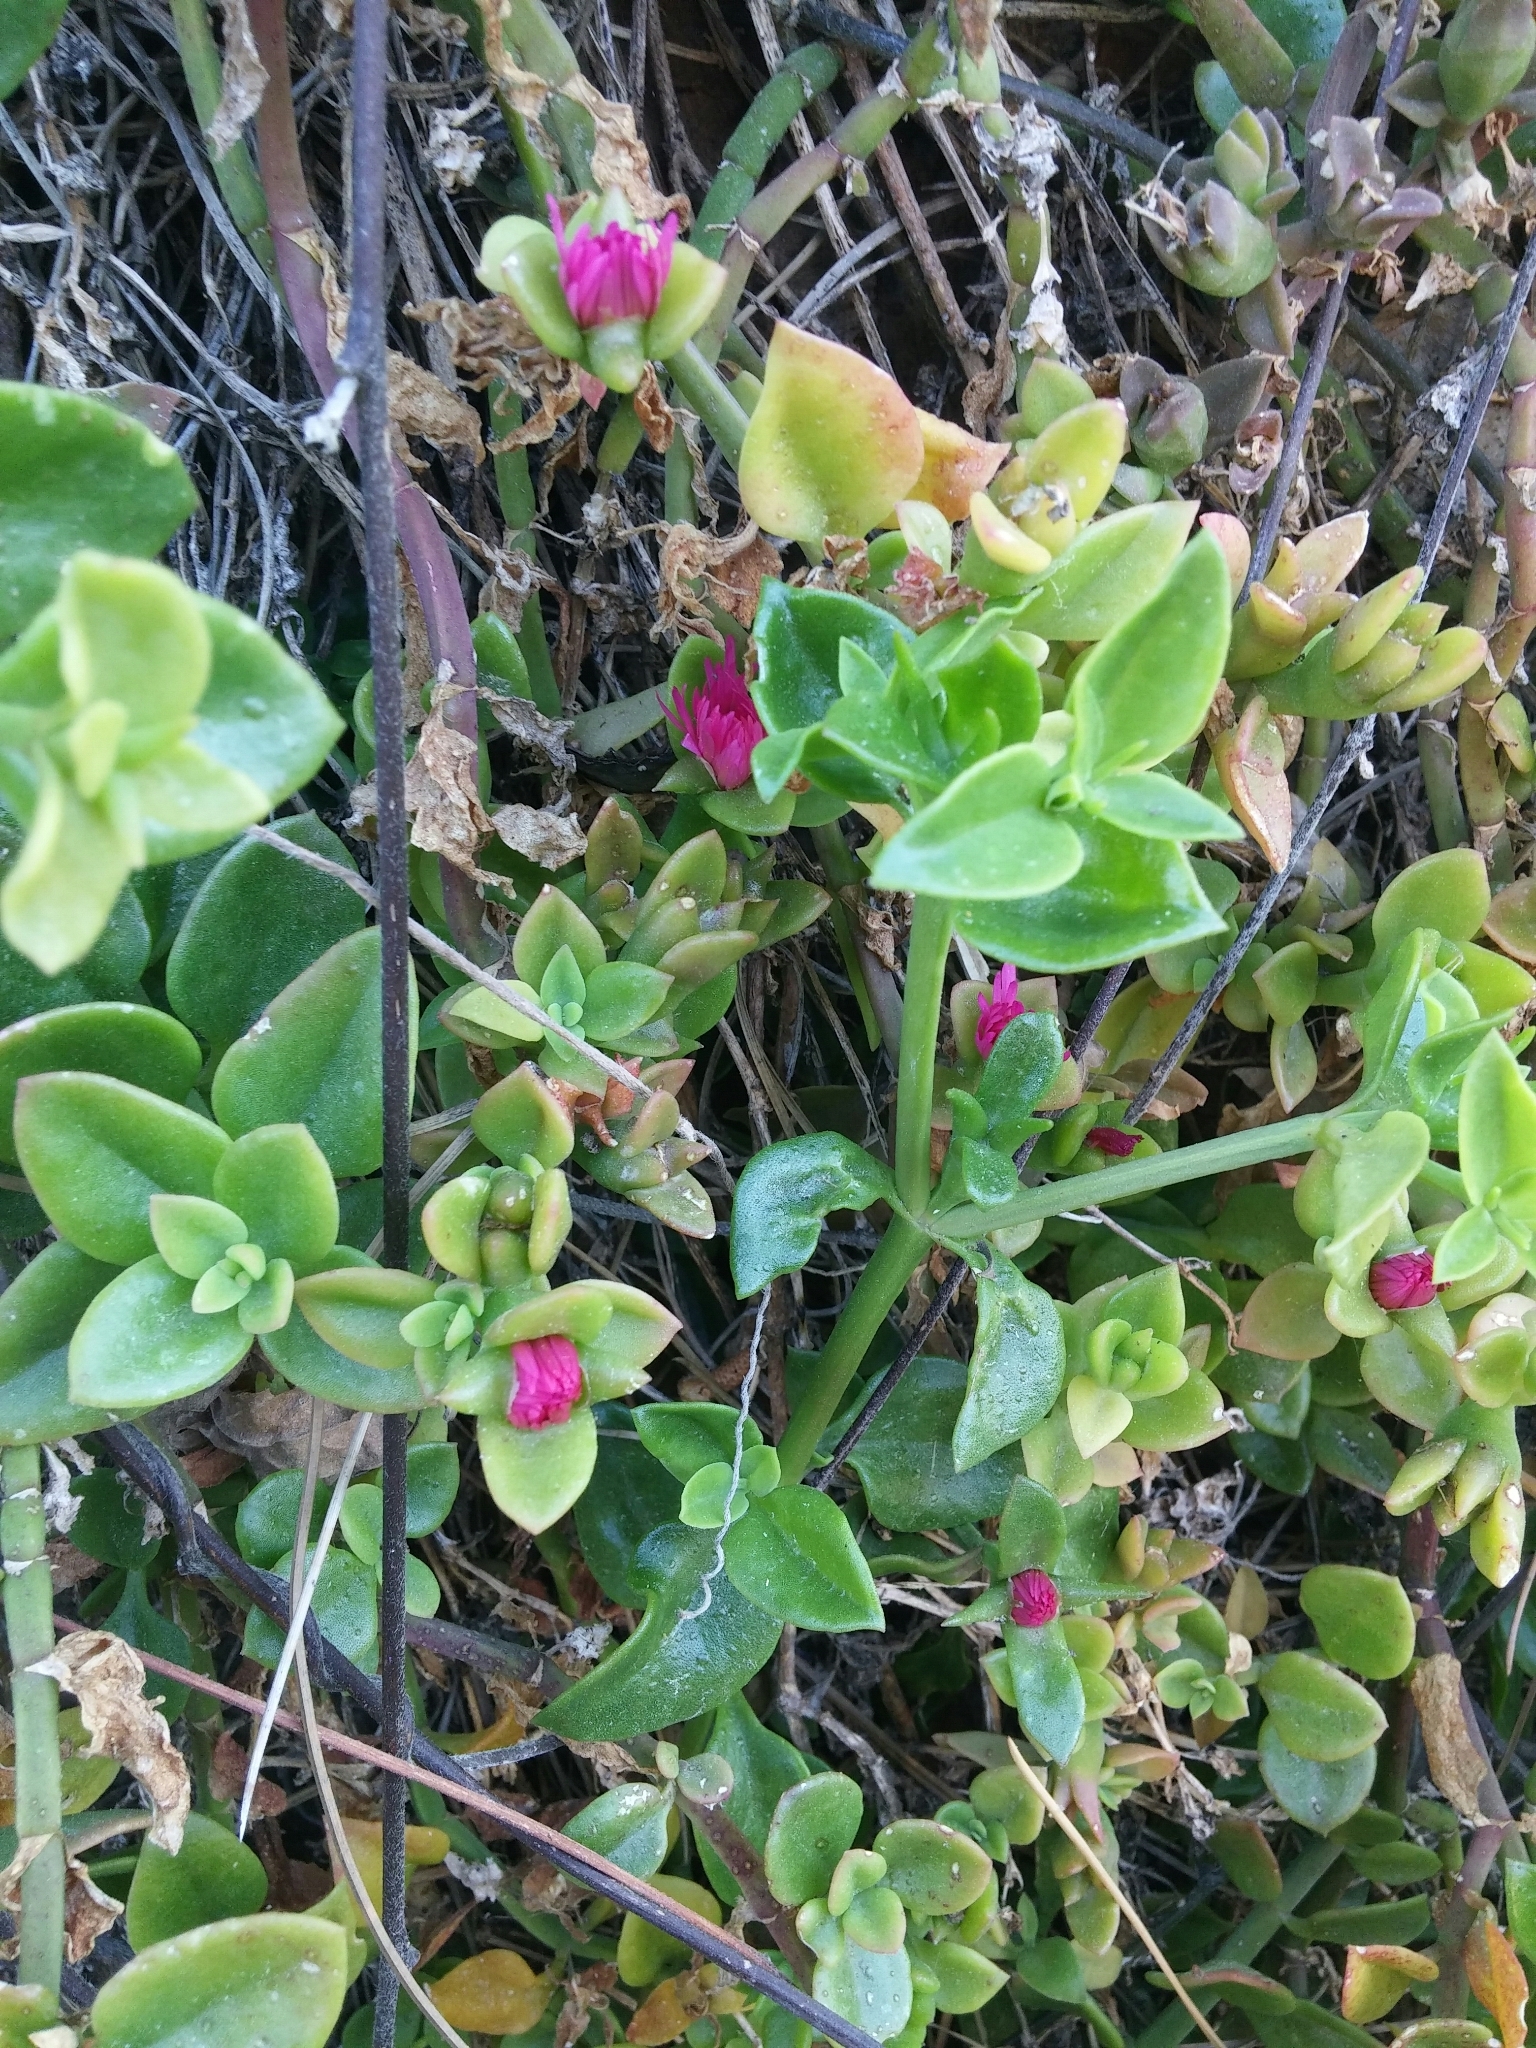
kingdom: Plantae
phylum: Tracheophyta
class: Magnoliopsida
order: Caryophyllales
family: Aizoaceae
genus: Mesembryanthemum
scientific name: Mesembryanthemum cordifolium
